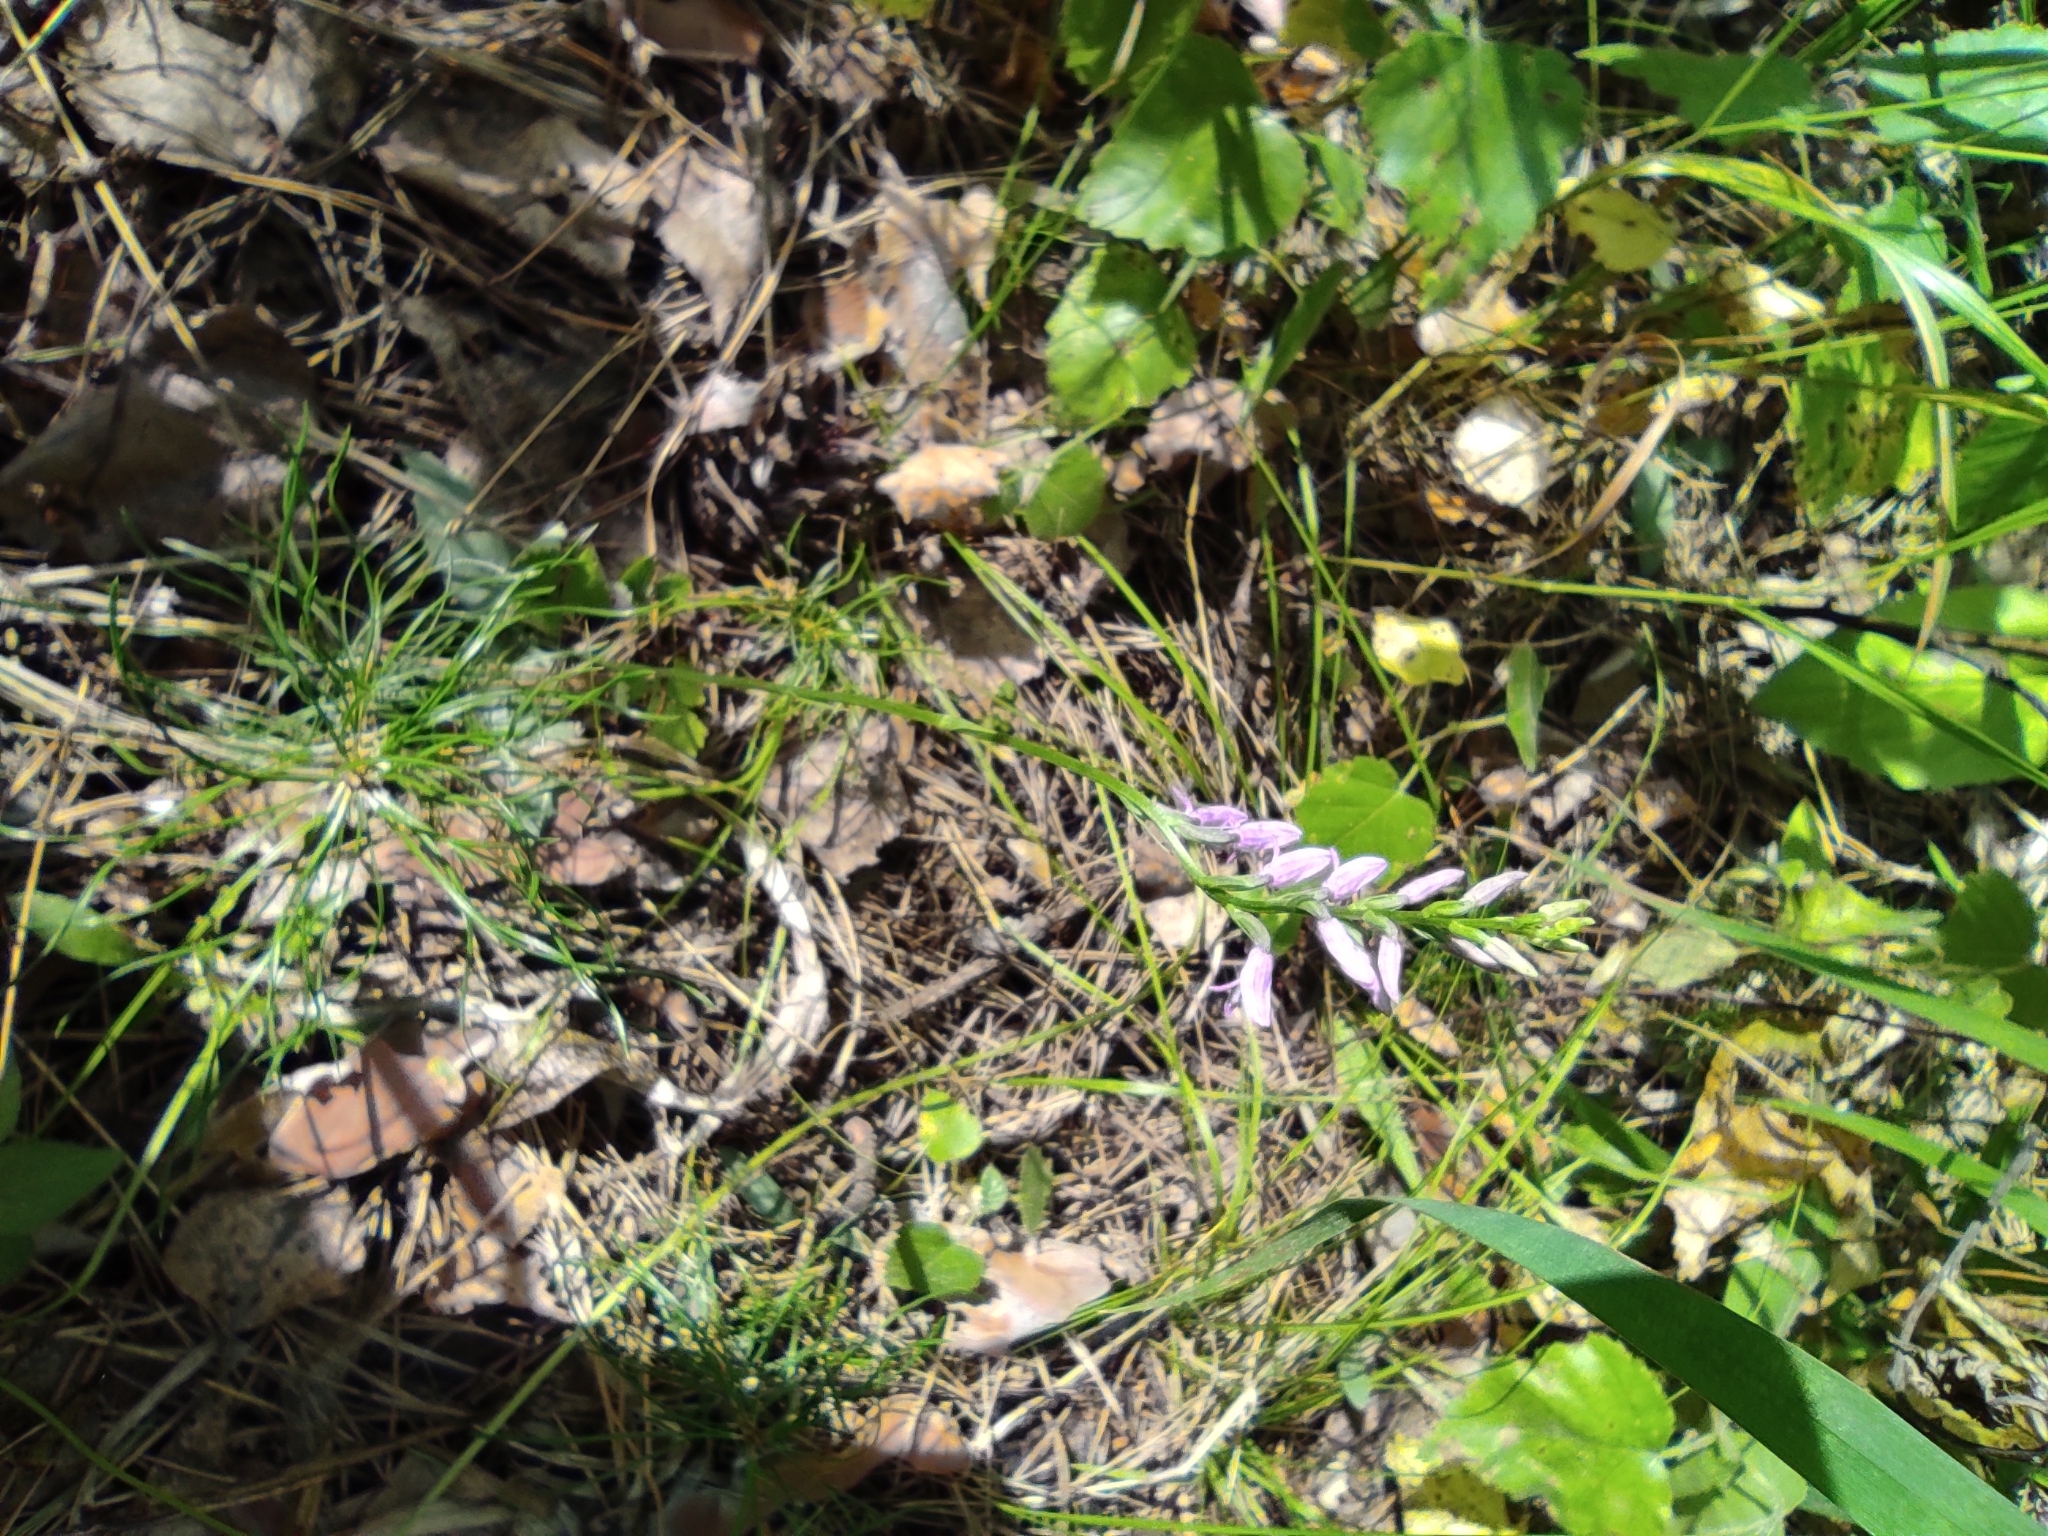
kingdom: Plantae
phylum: Tracheophyta
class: Liliopsida
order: Asparagales
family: Orchidaceae
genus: Hemipilia
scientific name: Hemipilia cucullata
